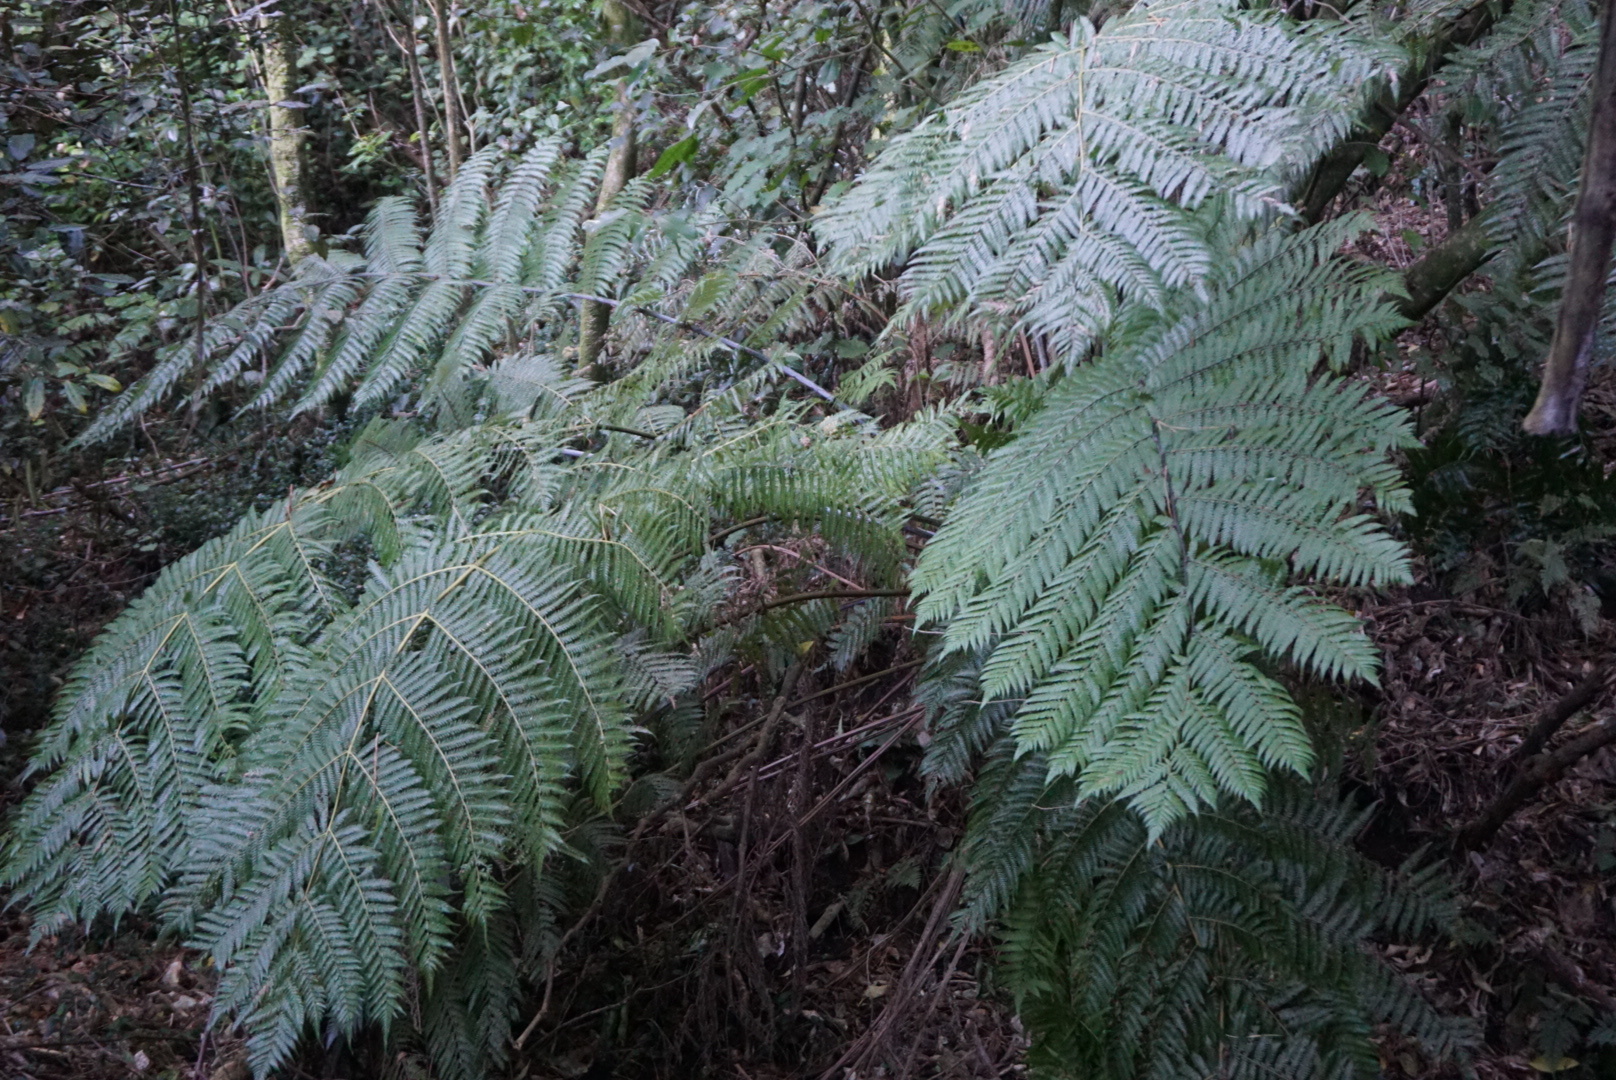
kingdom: Plantae
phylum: Tracheophyta
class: Polypodiopsida
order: Cyatheales
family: Cyatheaceae
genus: Alsophila
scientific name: Alsophila dealbata
